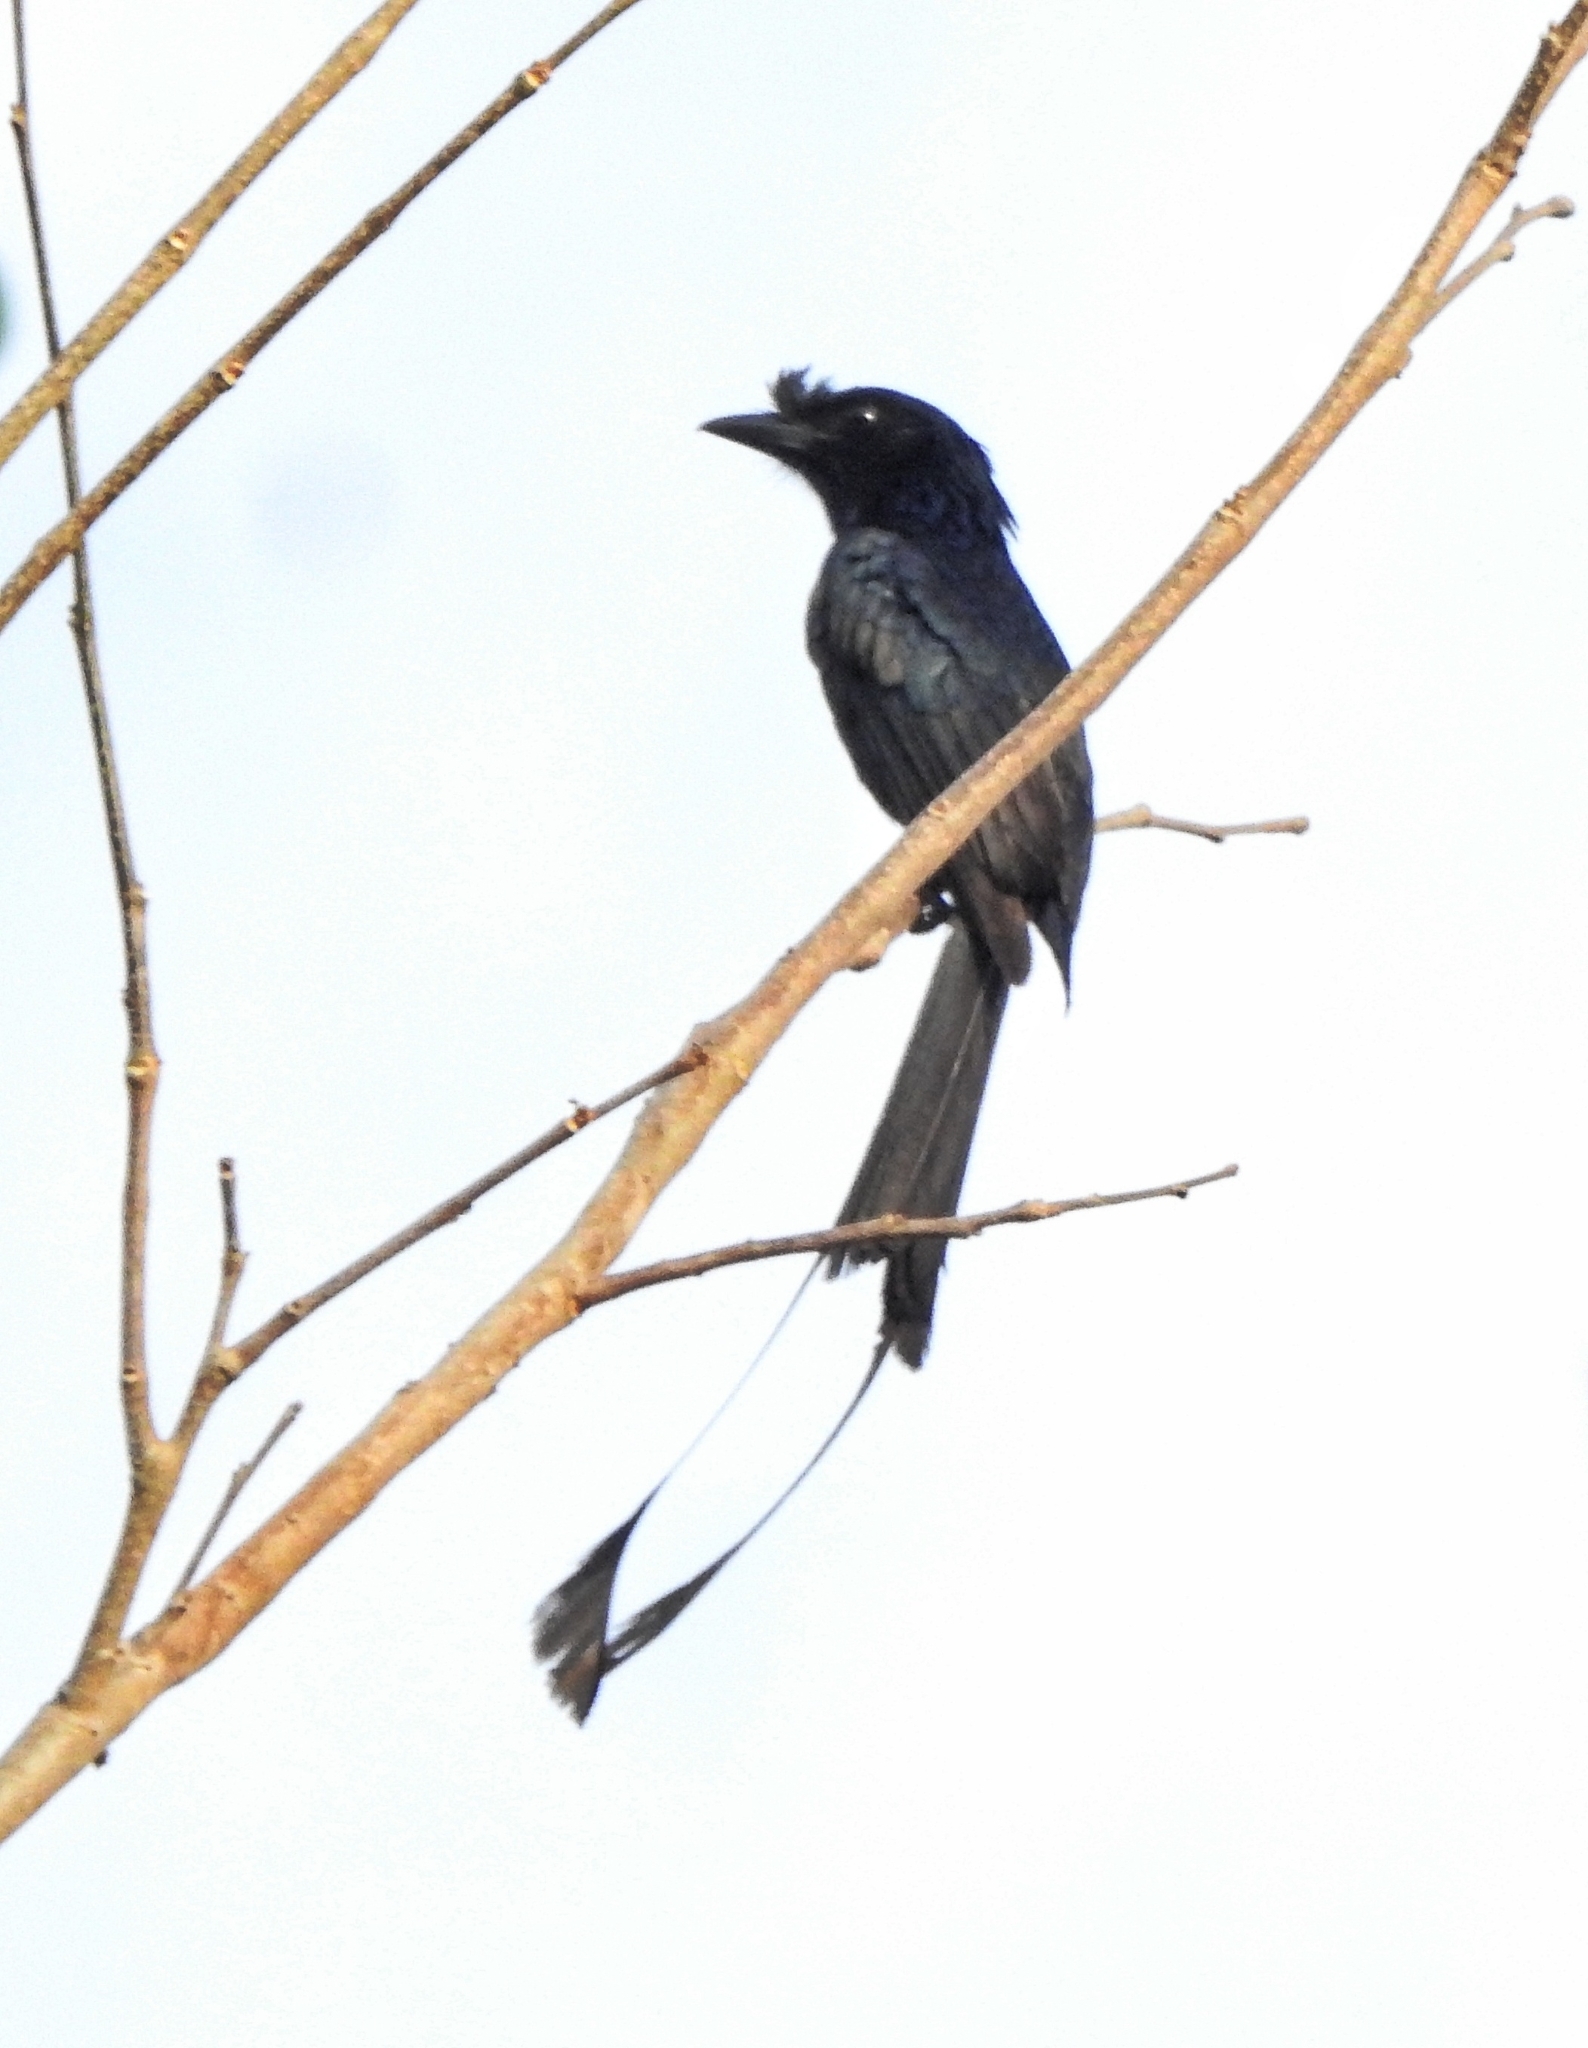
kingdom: Animalia
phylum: Chordata
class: Aves
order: Passeriformes
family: Dicruridae
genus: Dicrurus
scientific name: Dicrurus paradiseus
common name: Greater racket-tailed drongo
